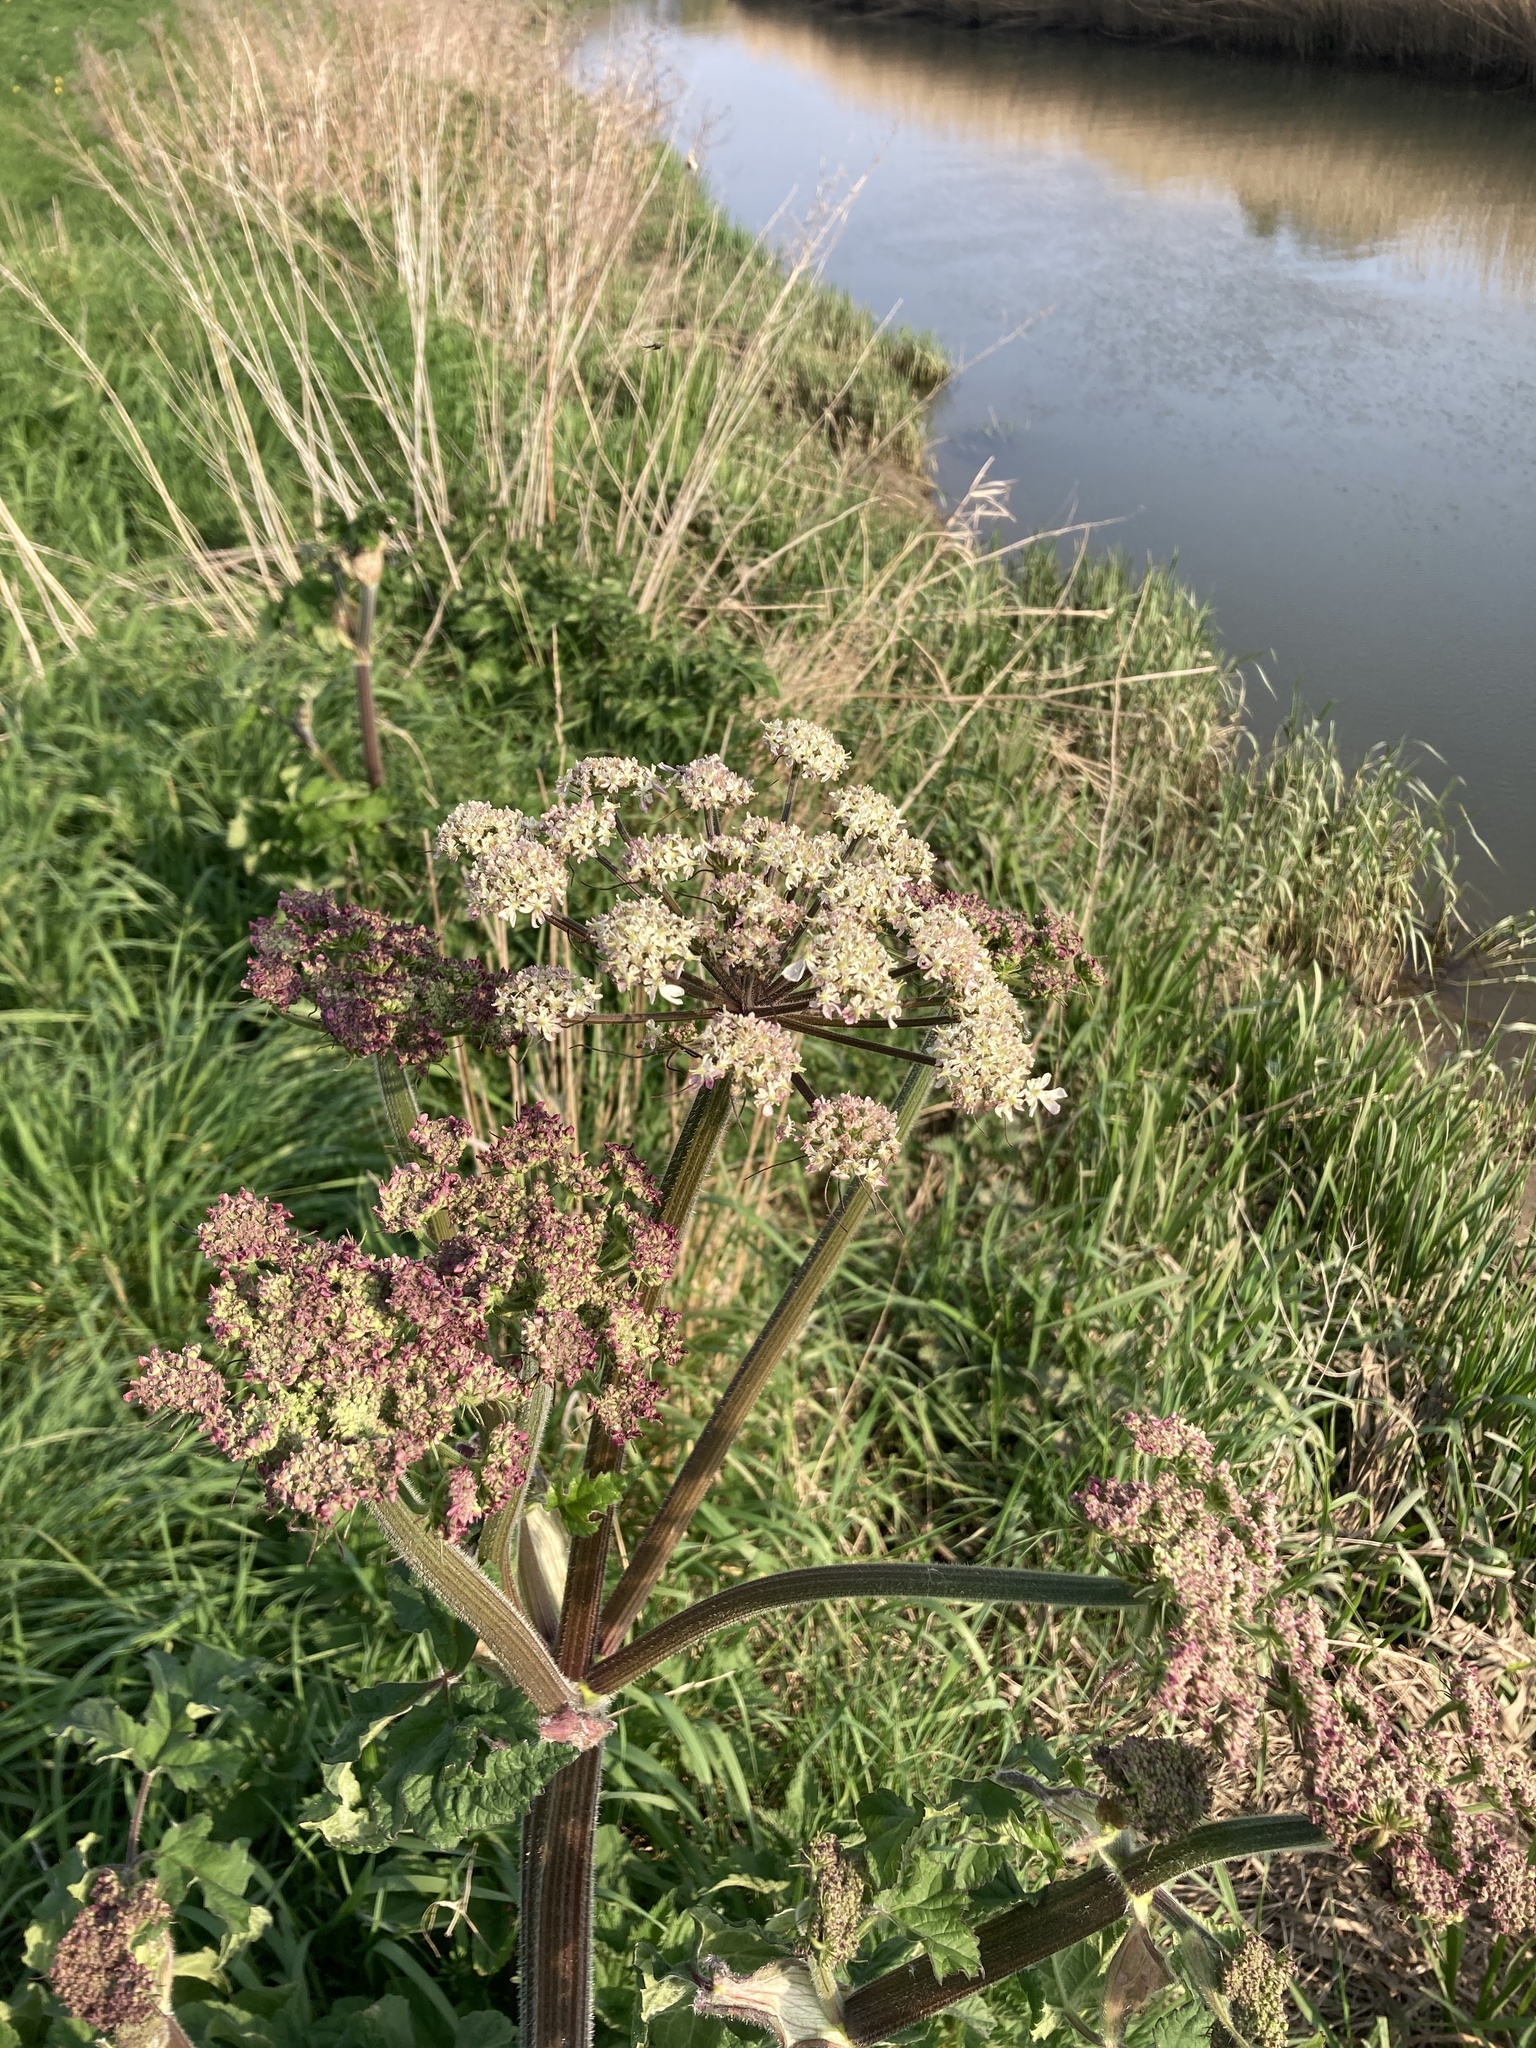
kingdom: Plantae
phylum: Tracheophyta
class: Magnoliopsida
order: Apiales
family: Apiaceae
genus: Heracleum
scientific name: Heracleum sphondylium
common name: Hogweed
